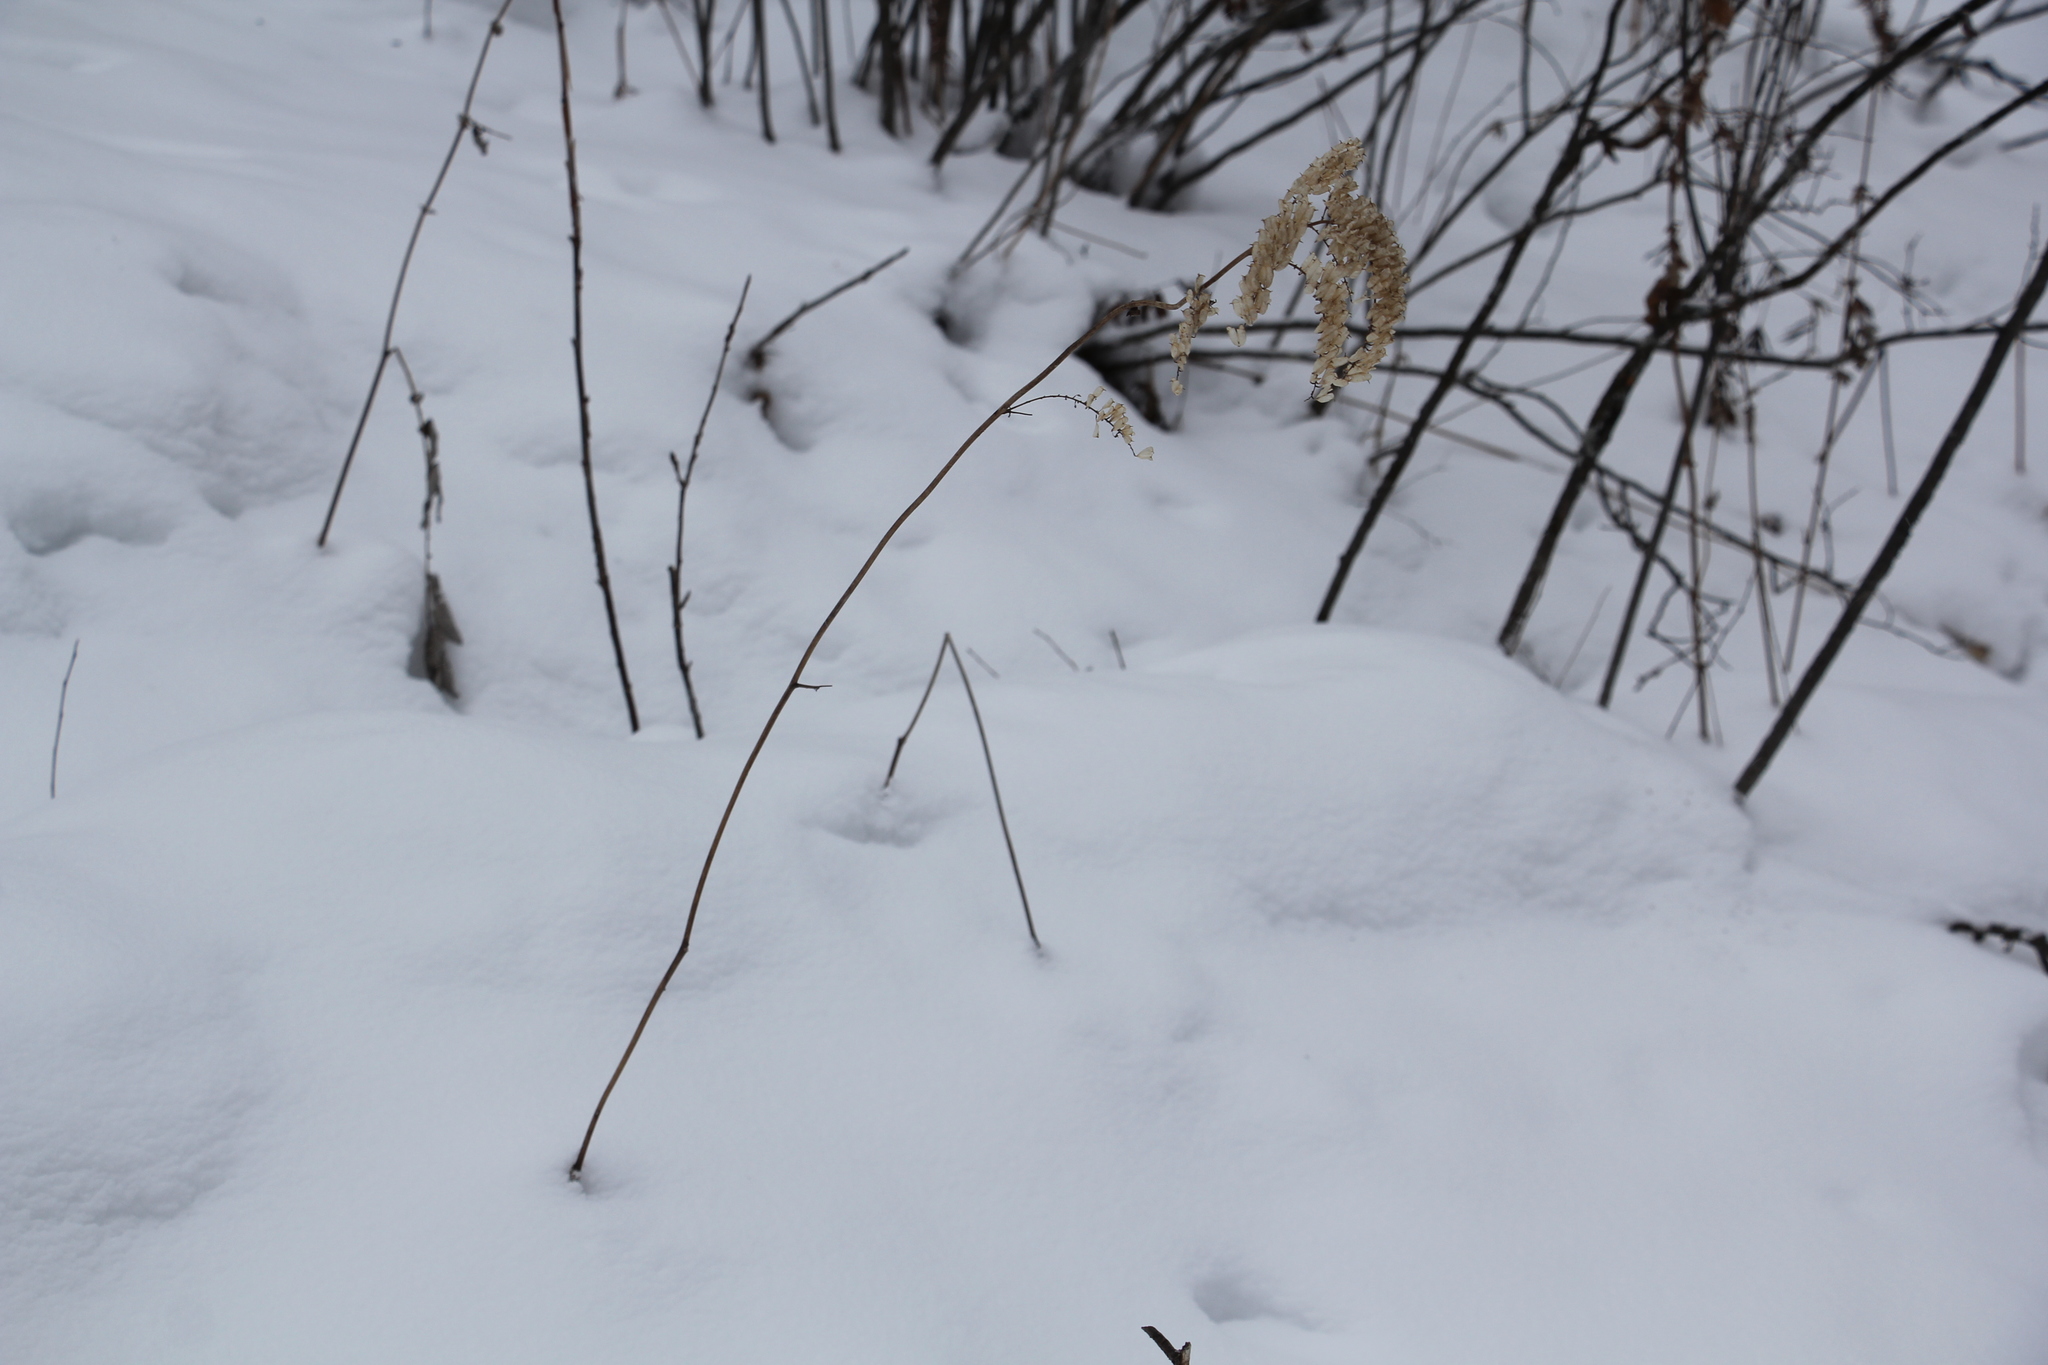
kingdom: Plantae
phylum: Tracheophyta
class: Magnoliopsida
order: Ranunculales
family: Ranunculaceae
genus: Actaea
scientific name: Actaea cimicifuga
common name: Chinese cimicifuga
